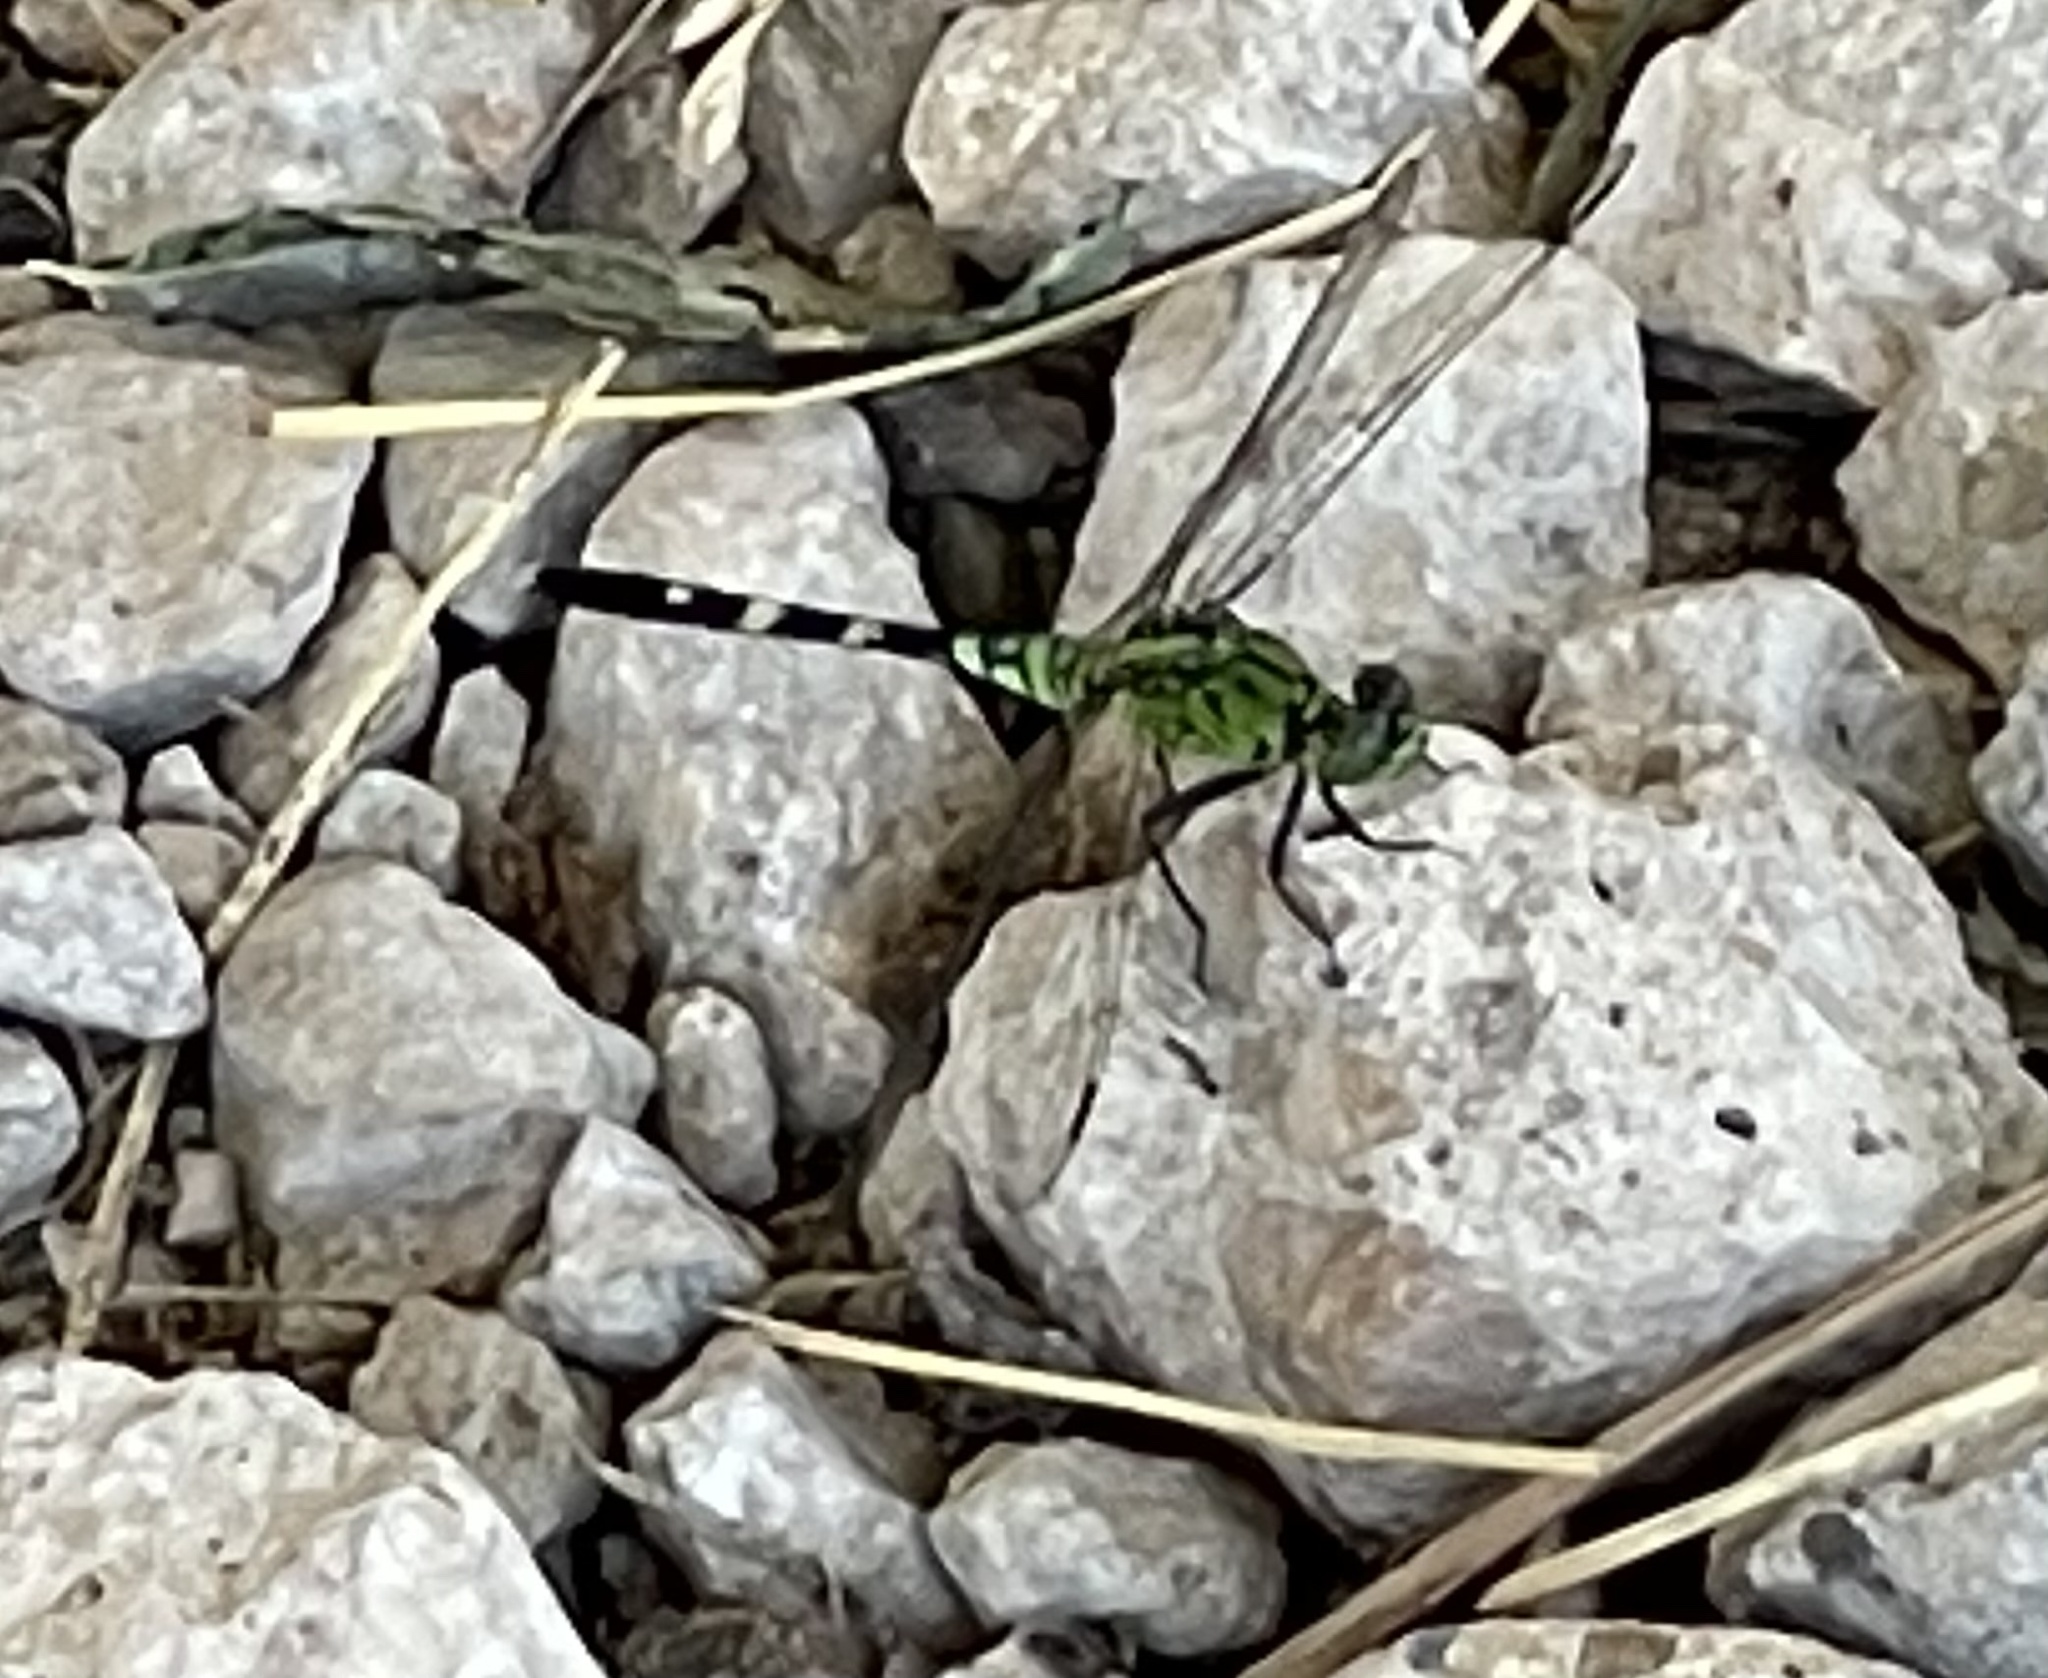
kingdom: Animalia
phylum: Arthropoda
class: Insecta
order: Odonata
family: Libellulidae
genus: Erythemis
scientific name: Erythemis simplicicollis
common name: Eastern pondhawk
